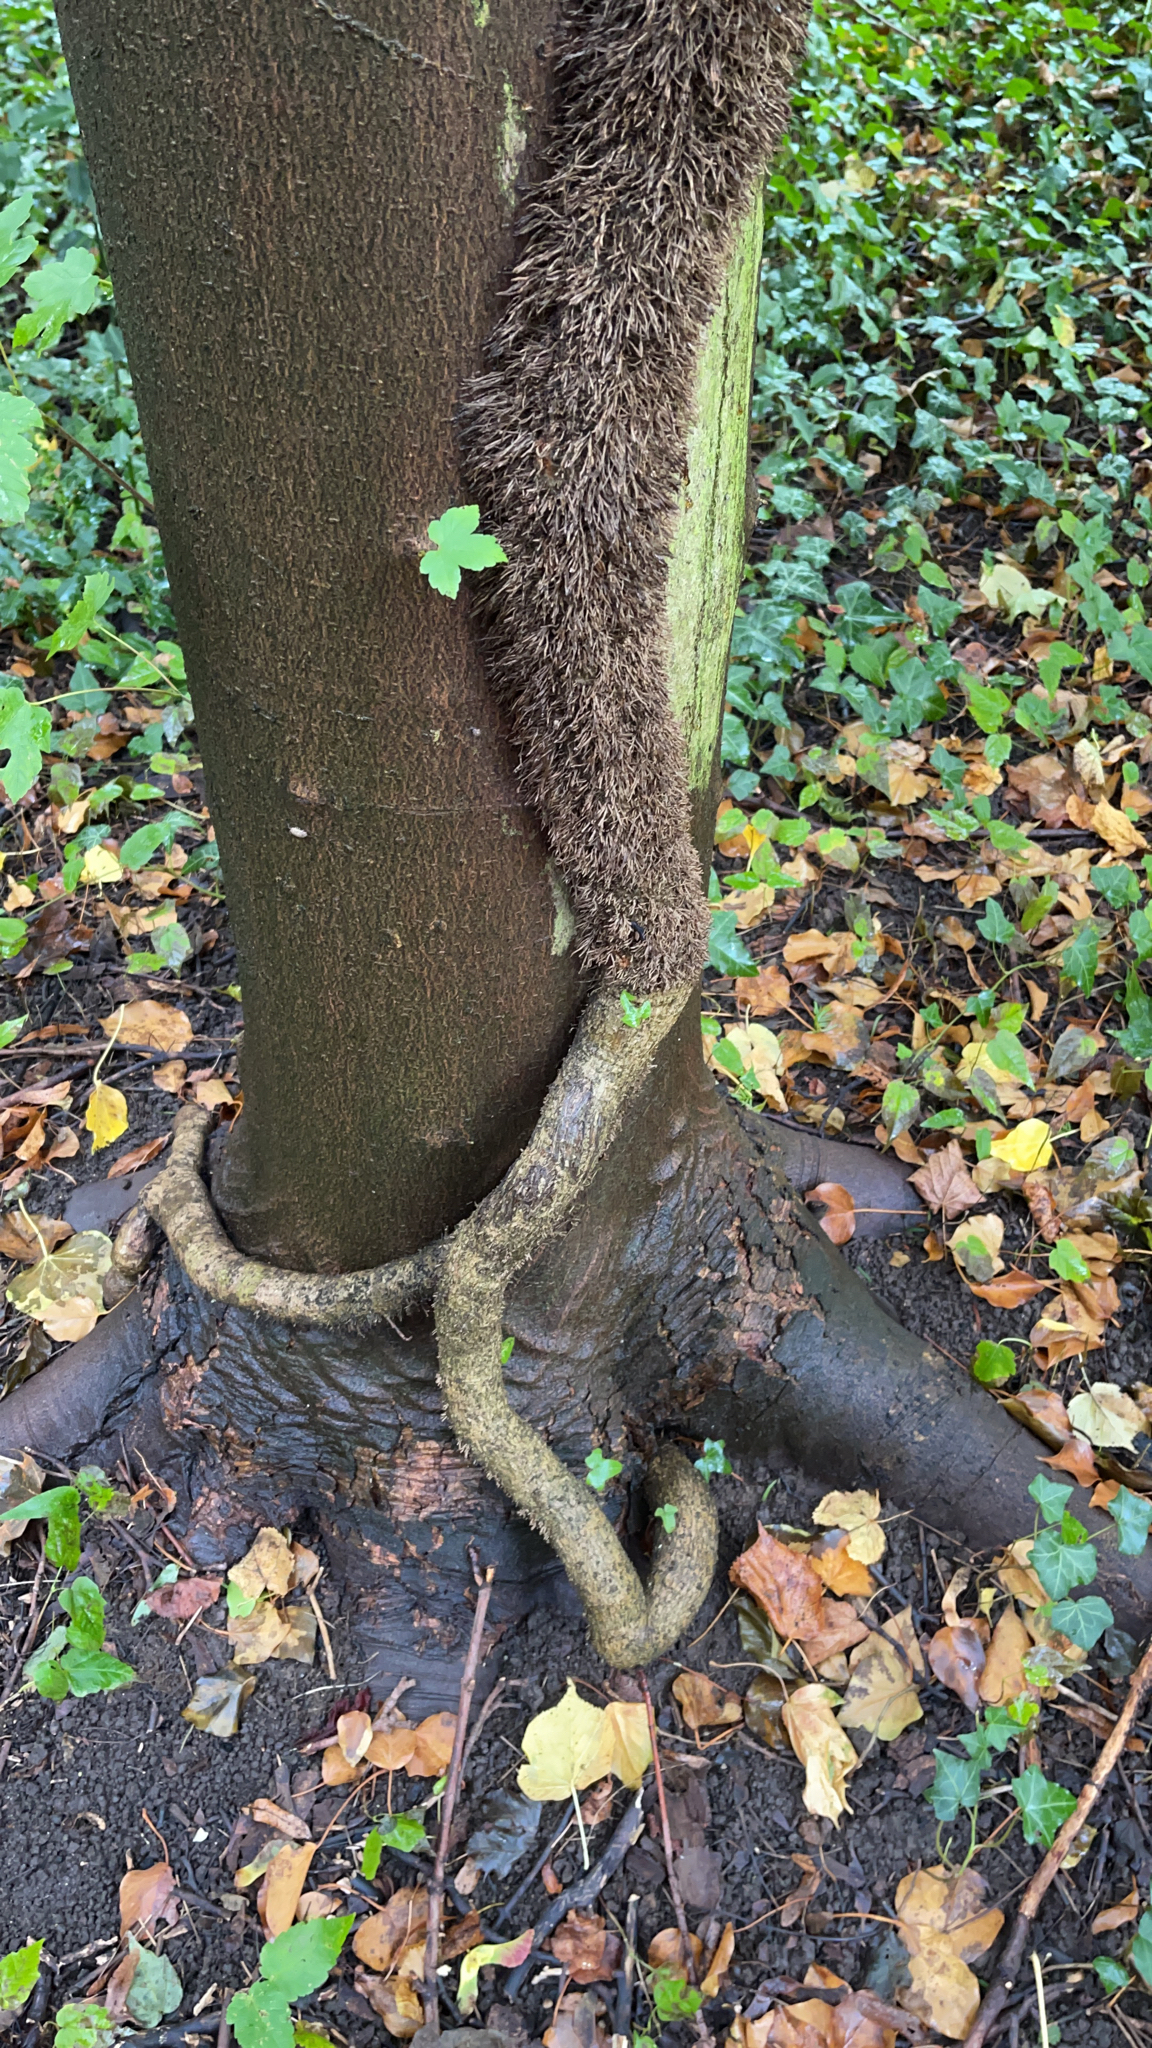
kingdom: Plantae
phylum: Tracheophyta
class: Magnoliopsida
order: Apiales
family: Araliaceae
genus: Hedera
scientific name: Hedera helix
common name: Ivy
